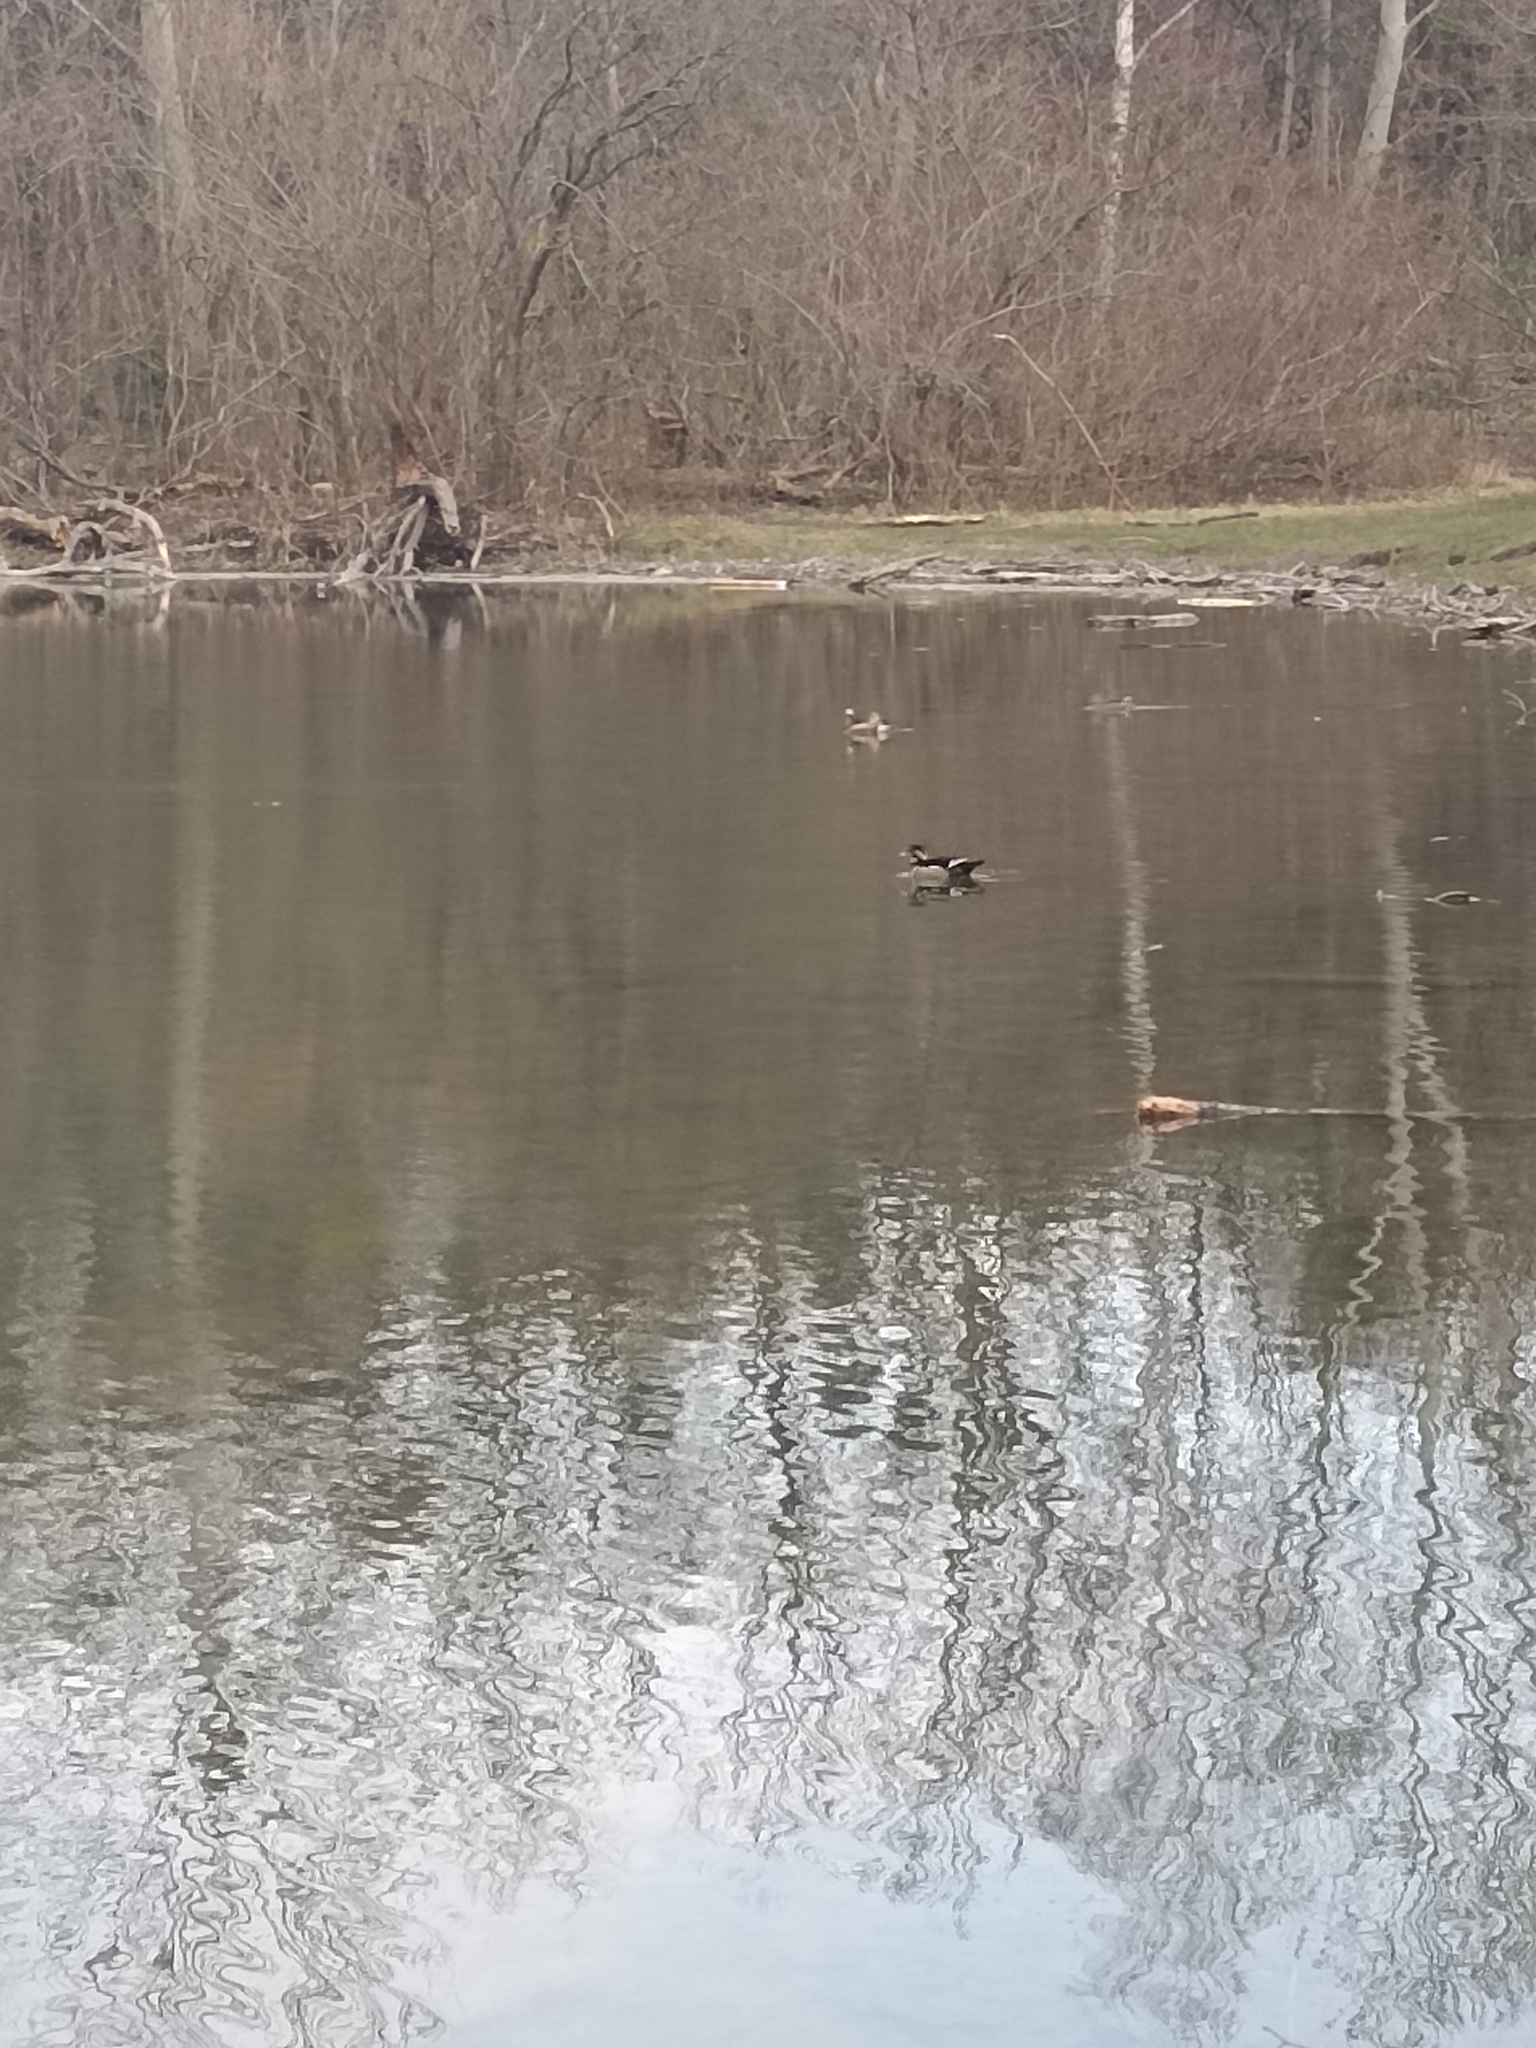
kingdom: Animalia
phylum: Chordata
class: Aves
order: Anseriformes
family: Anatidae
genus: Aix
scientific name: Aix sponsa
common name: Wood duck
